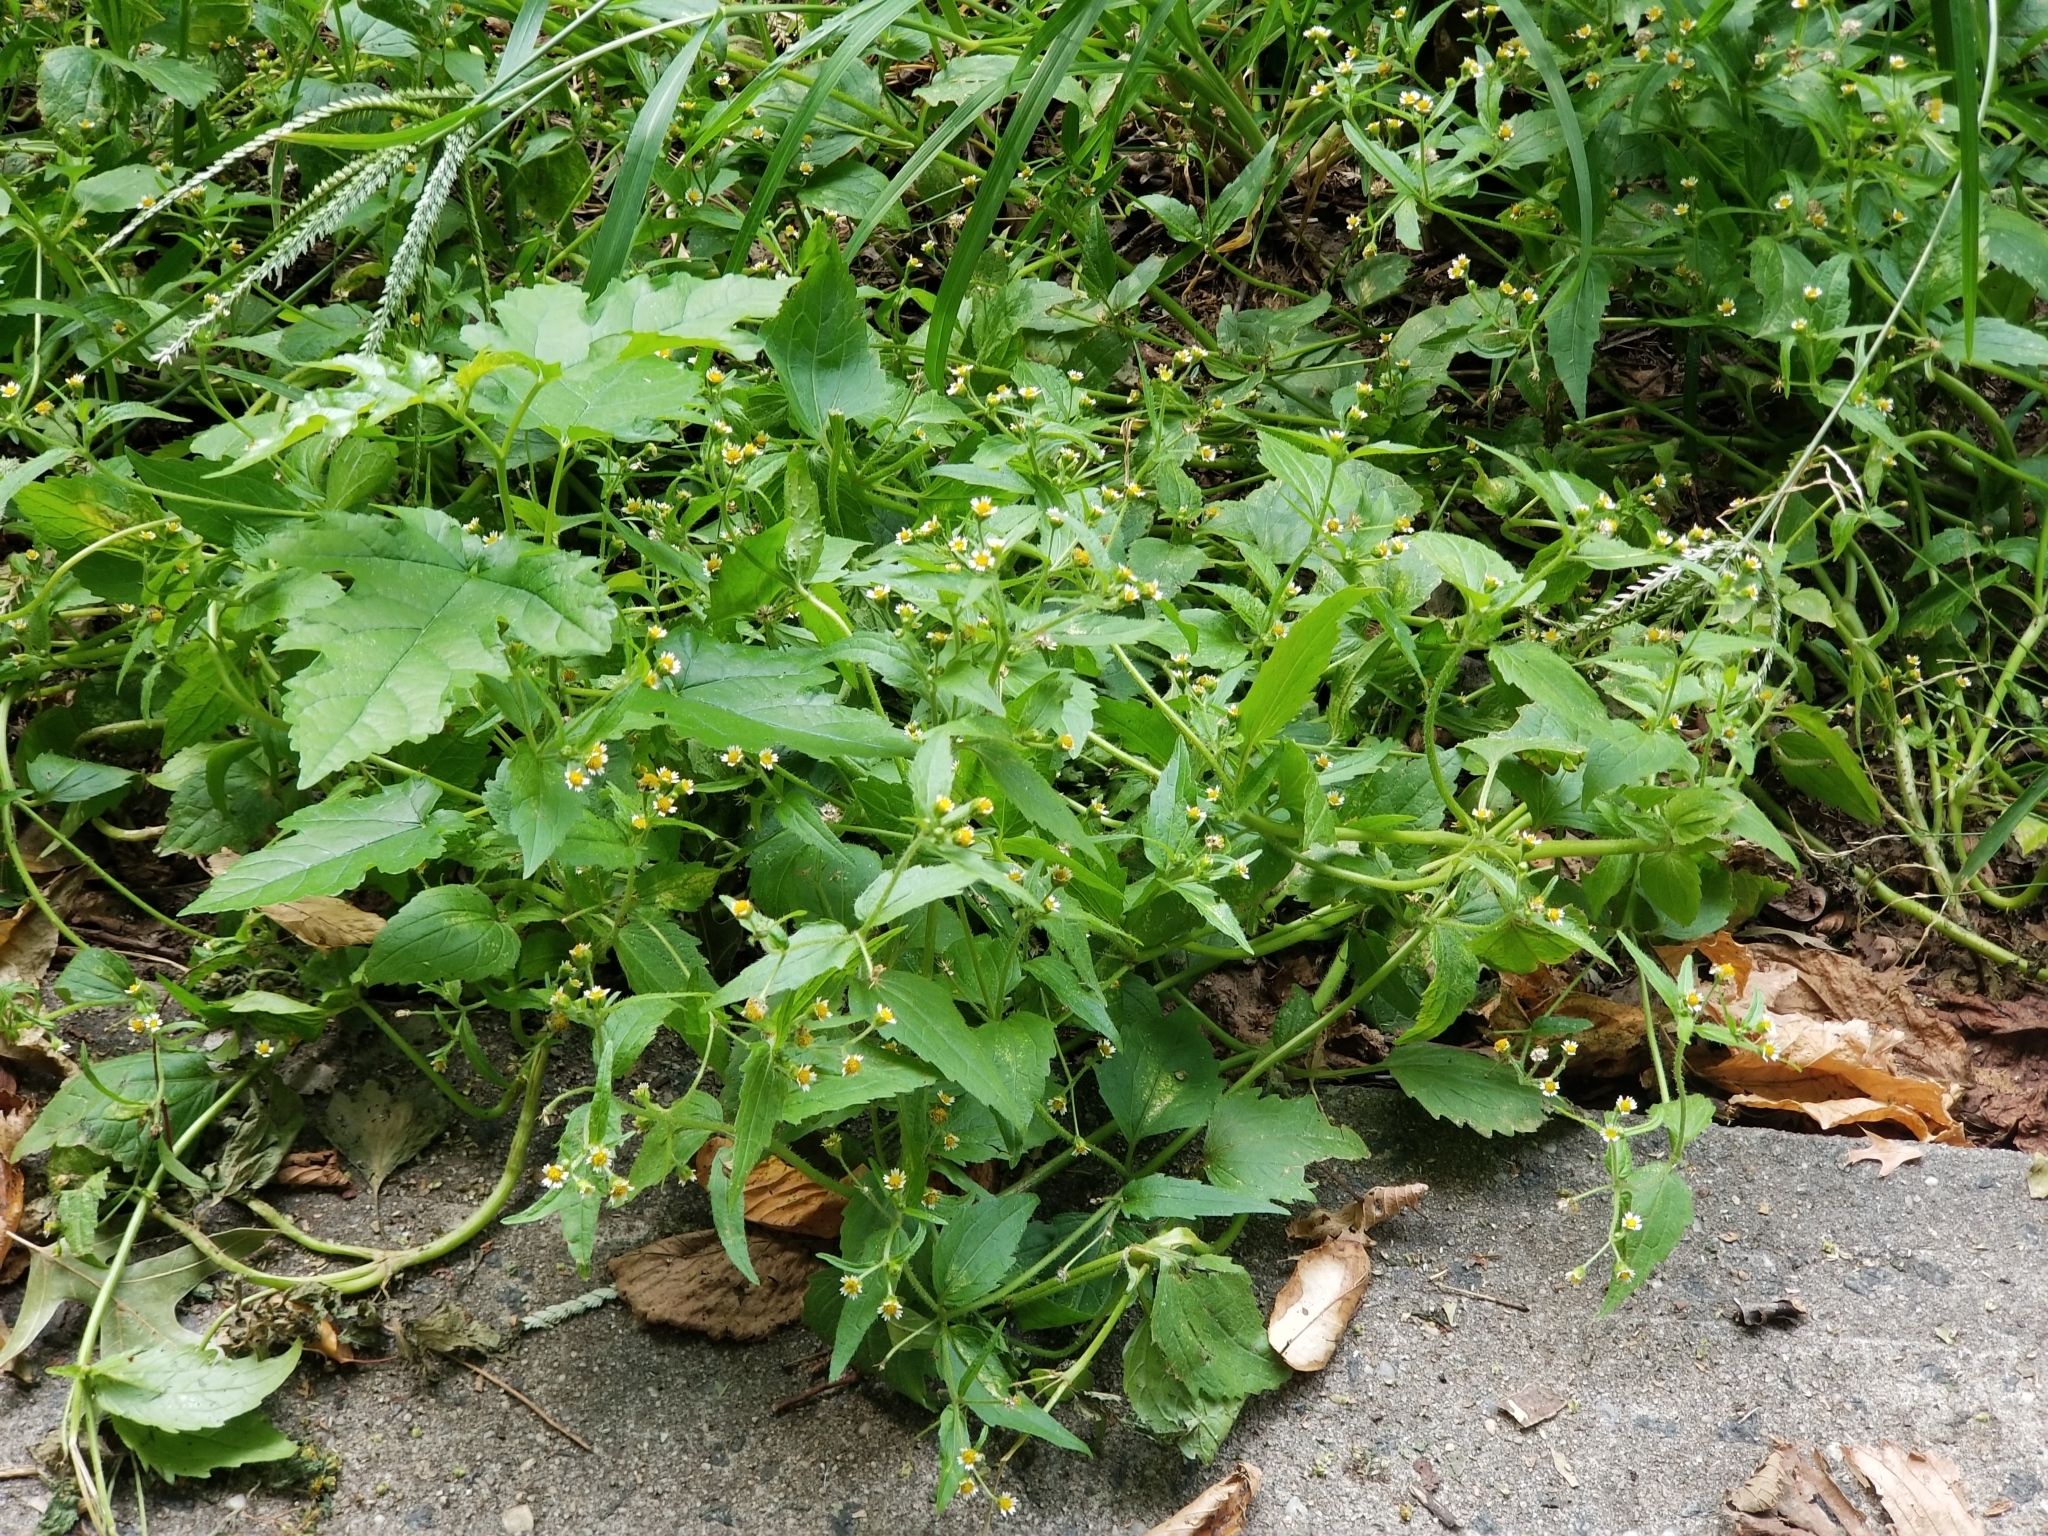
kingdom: Plantae
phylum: Tracheophyta
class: Magnoliopsida
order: Asterales
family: Asteraceae
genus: Galinsoga
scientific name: Galinsoga quadriradiata
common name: Shaggy soldier
